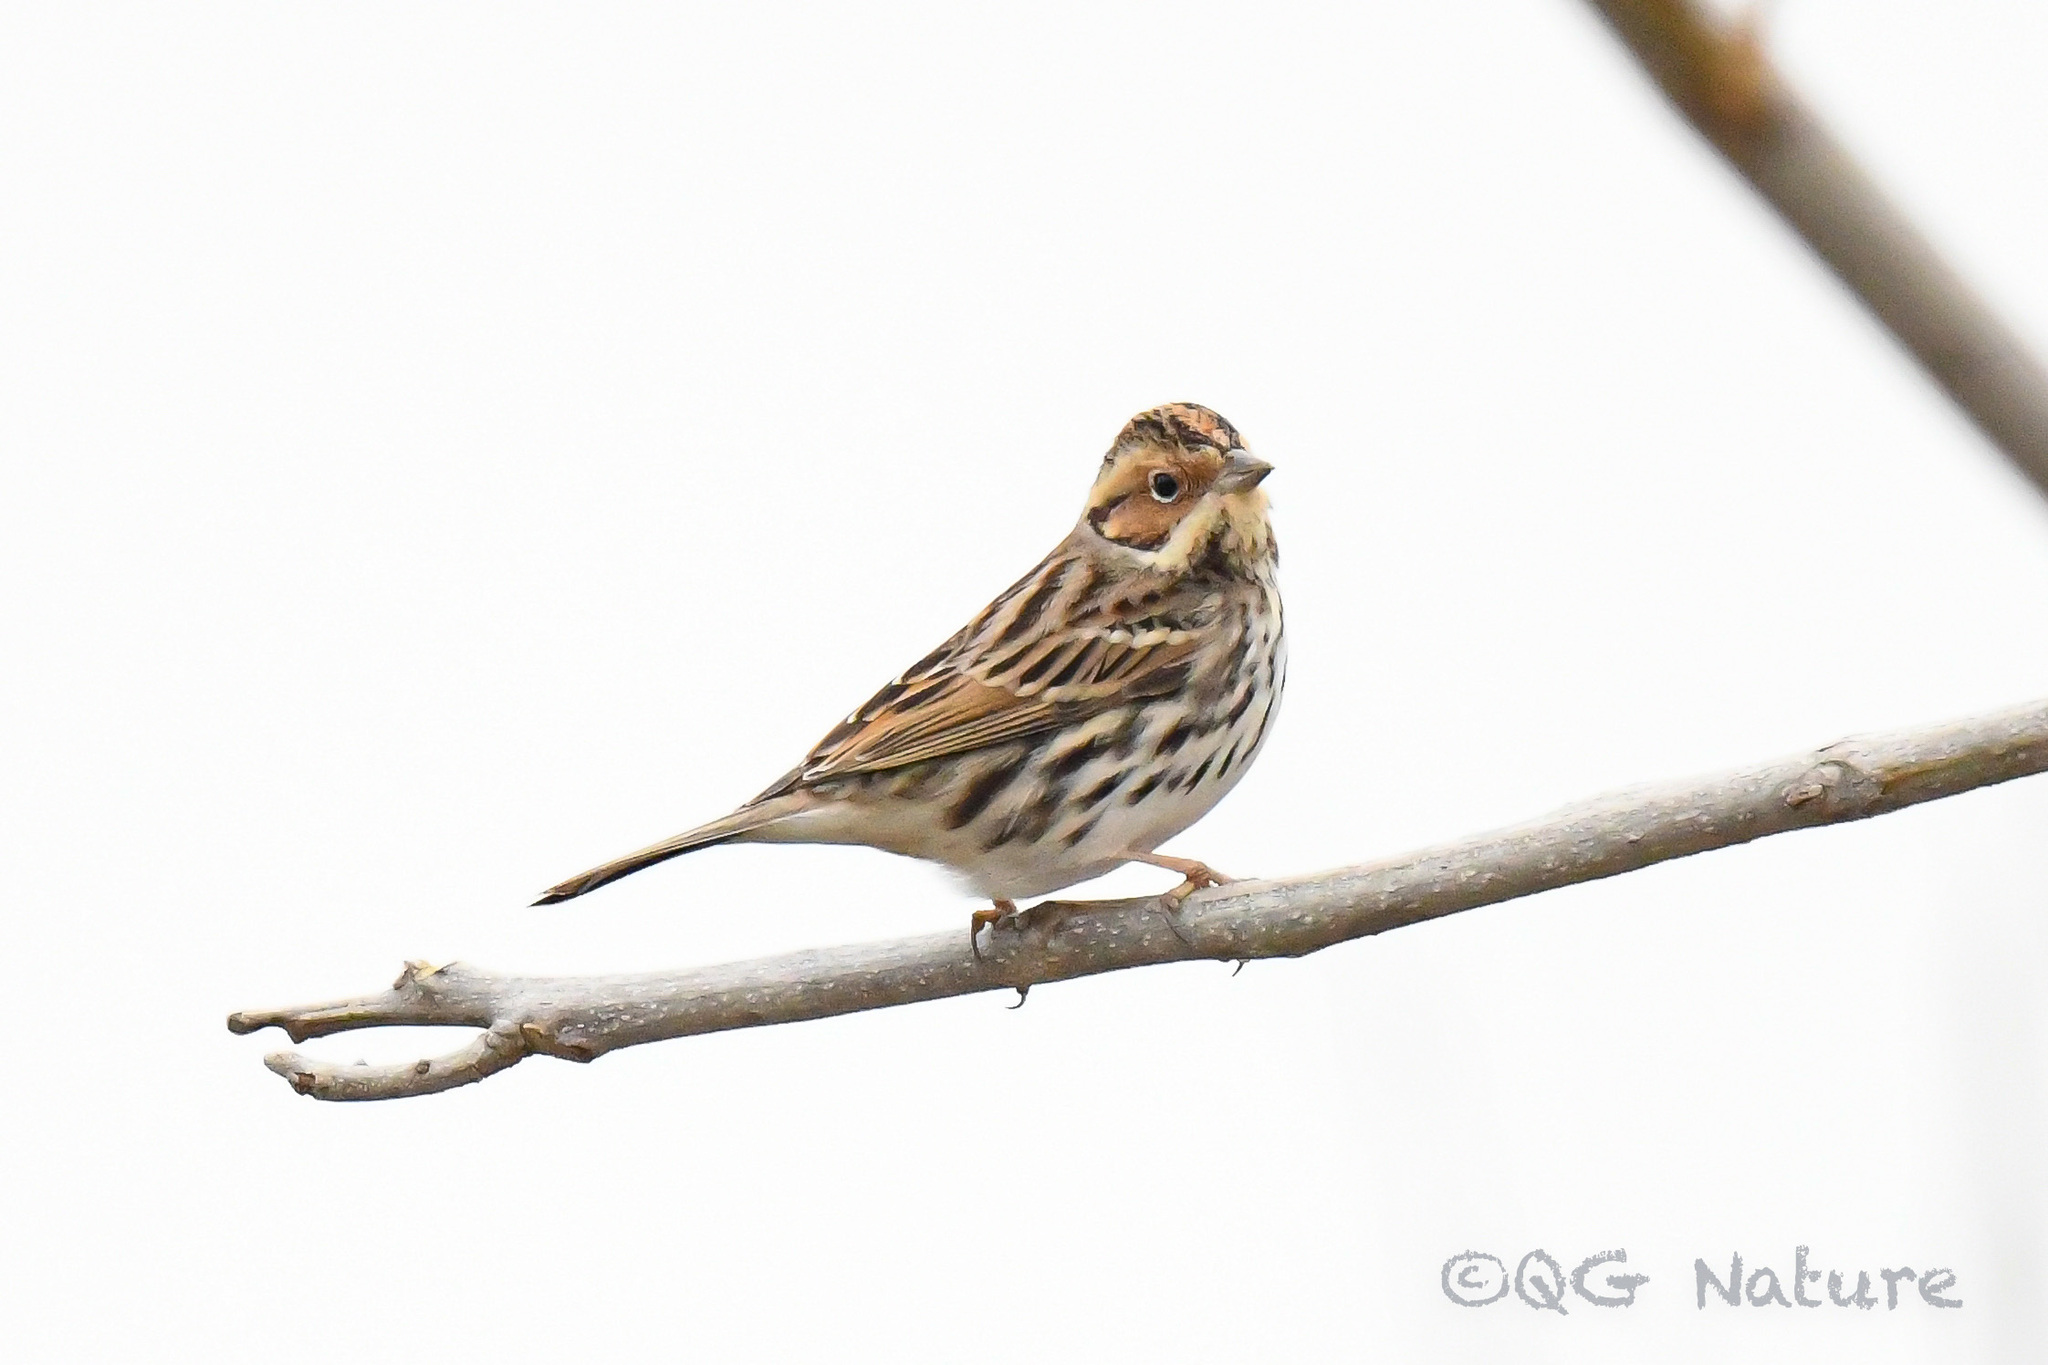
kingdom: Animalia
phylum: Chordata
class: Aves
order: Passeriformes
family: Emberizidae
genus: Emberiza
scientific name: Emberiza pusilla
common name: Little bunting
